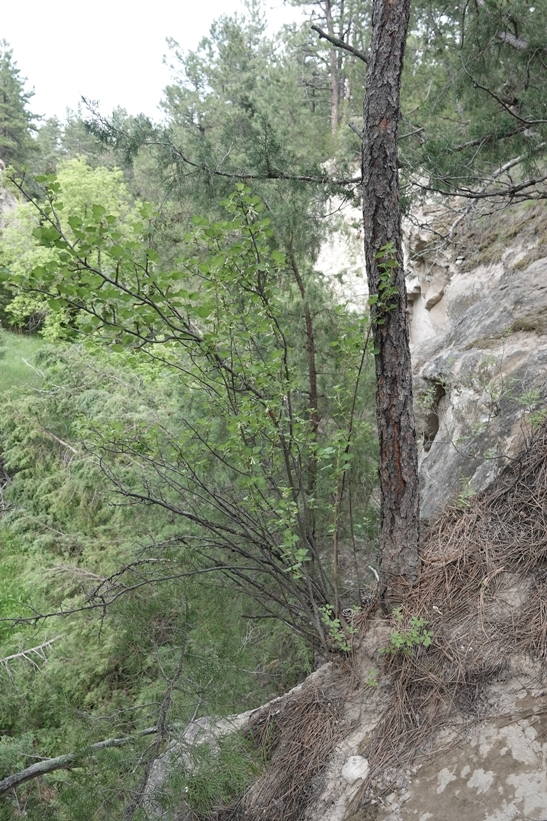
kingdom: Plantae
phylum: Tracheophyta
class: Magnoliopsida
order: Saxifragales
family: Grossulariaceae
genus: Ribes
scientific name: Ribes cereum
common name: Wax currant
